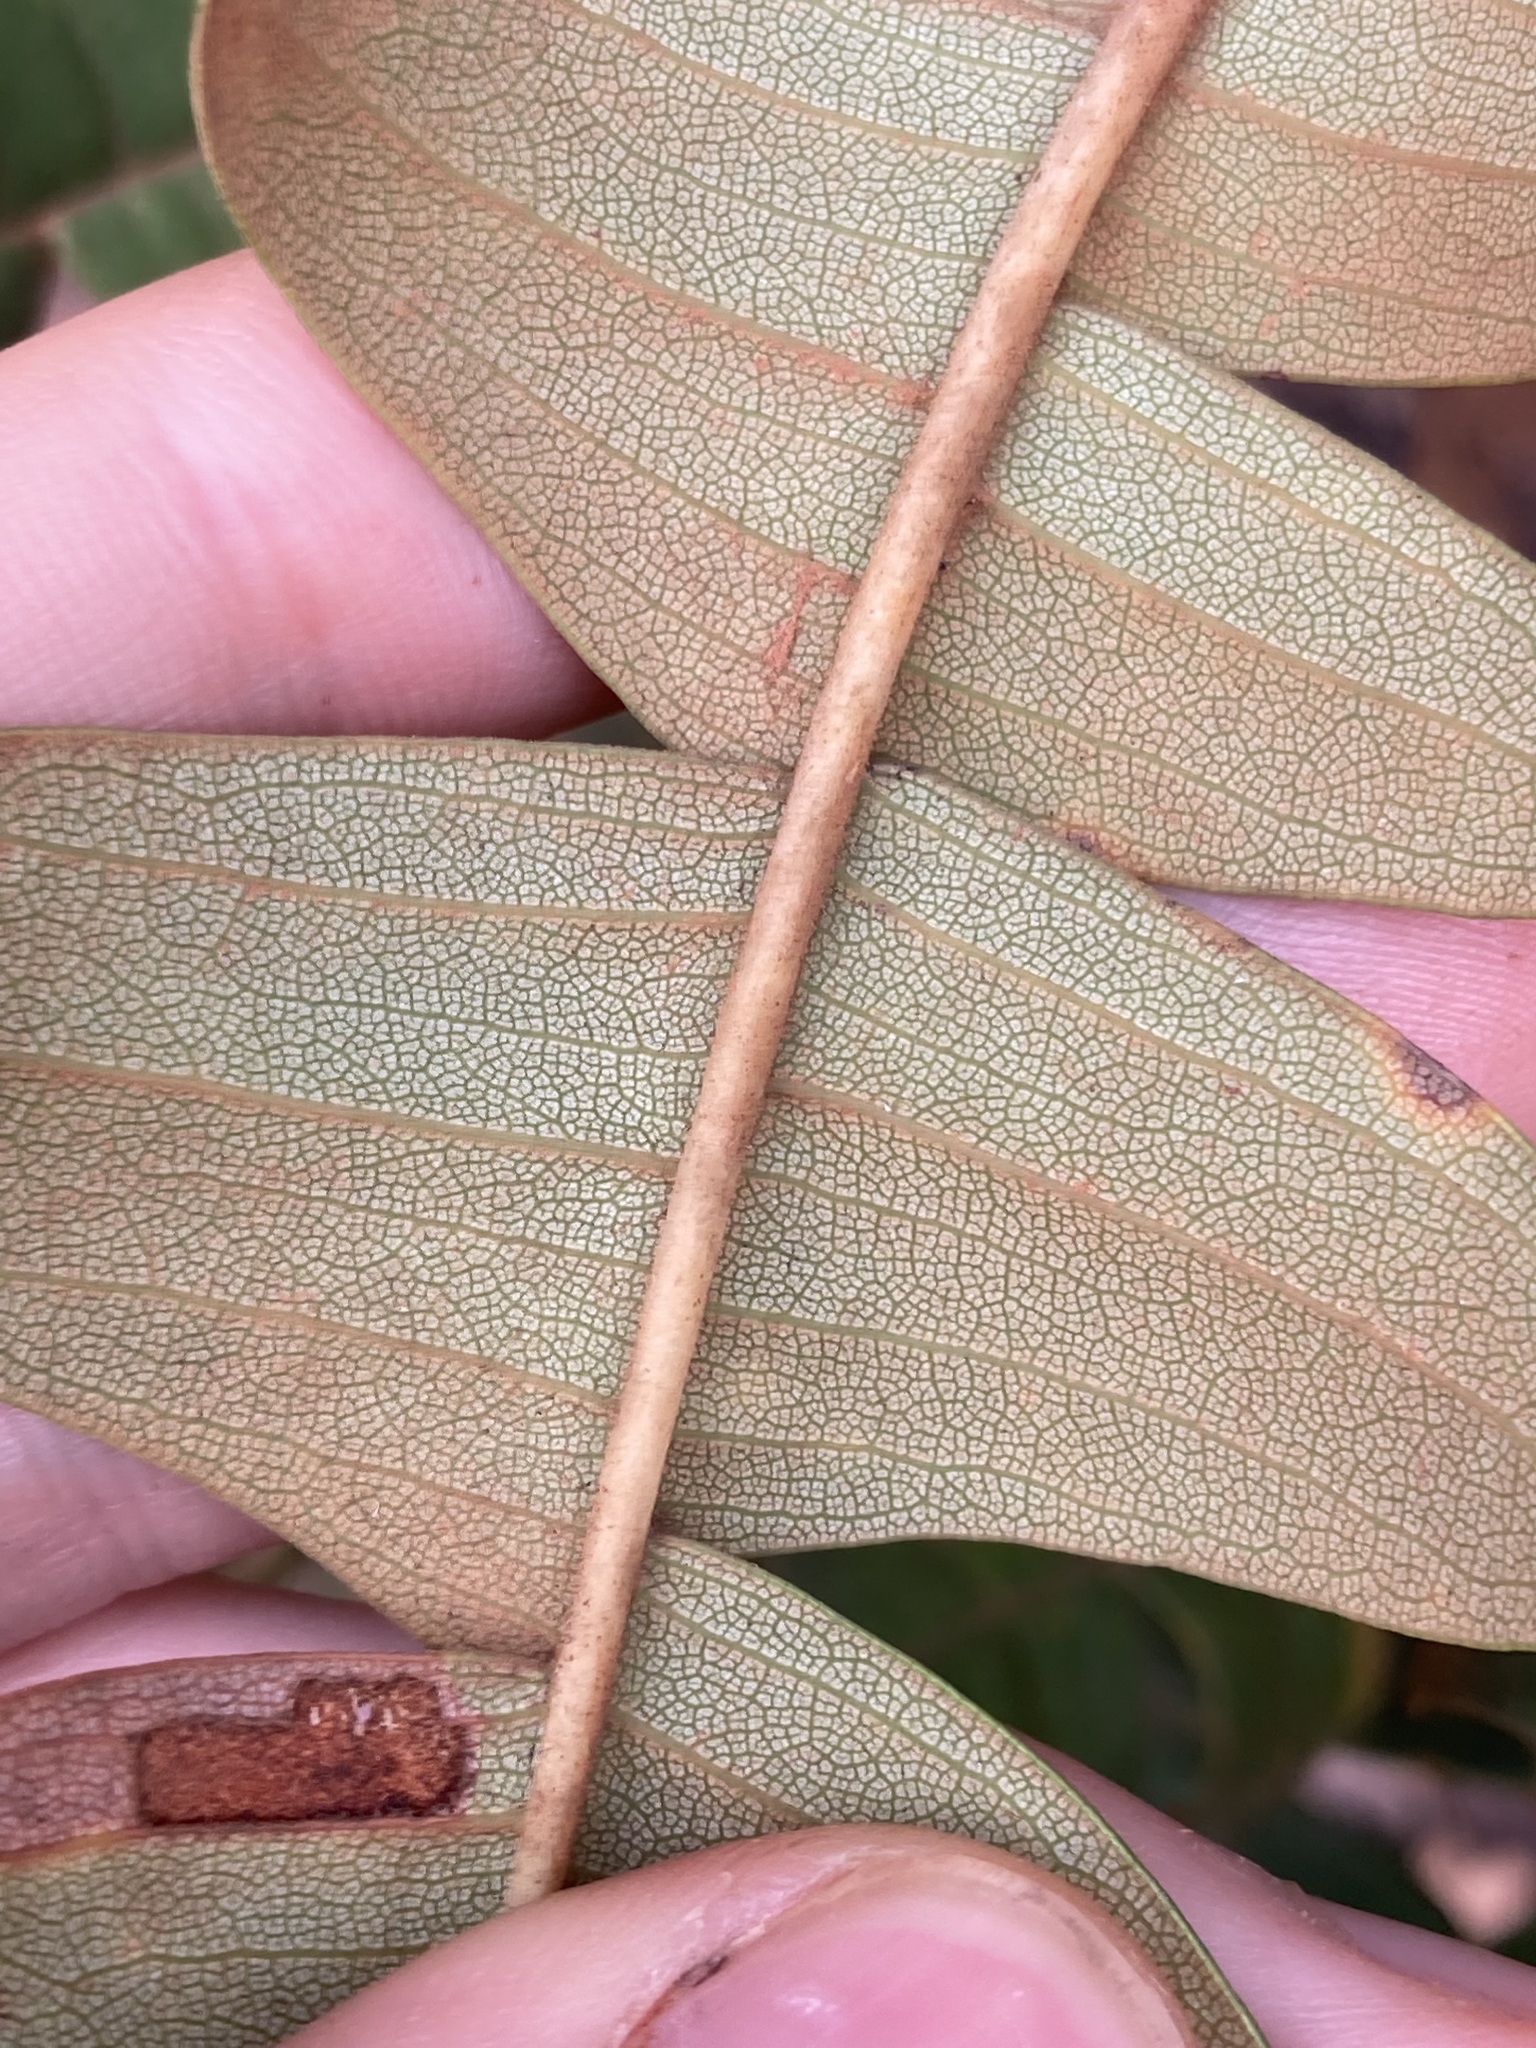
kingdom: Plantae
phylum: Tracheophyta
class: Magnoliopsida
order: Proteales
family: Proteaceae
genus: Banksia
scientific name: Banksia grandis
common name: Giant banksia
